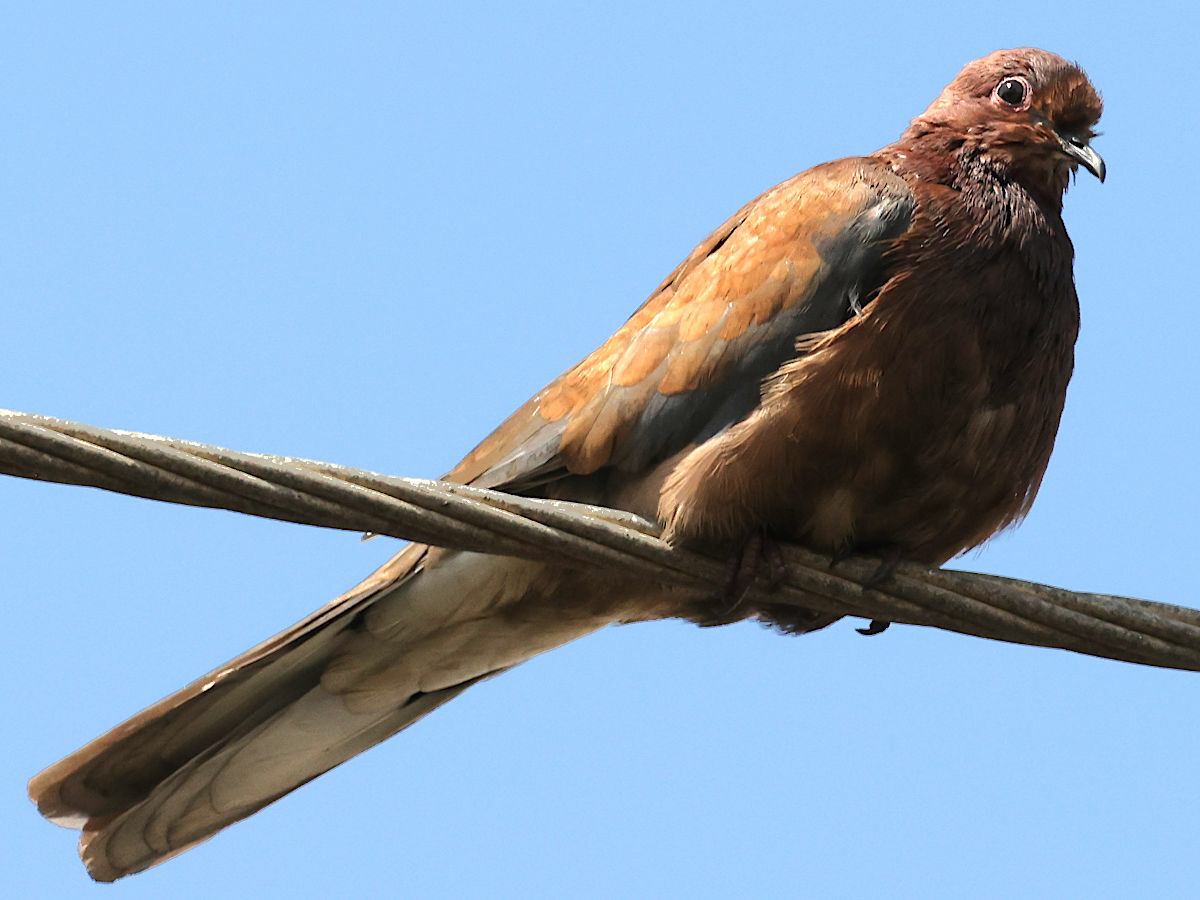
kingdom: Animalia
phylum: Chordata
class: Aves
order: Columbiformes
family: Columbidae
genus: Spilopelia
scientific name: Spilopelia senegalensis
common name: Laughing dove
